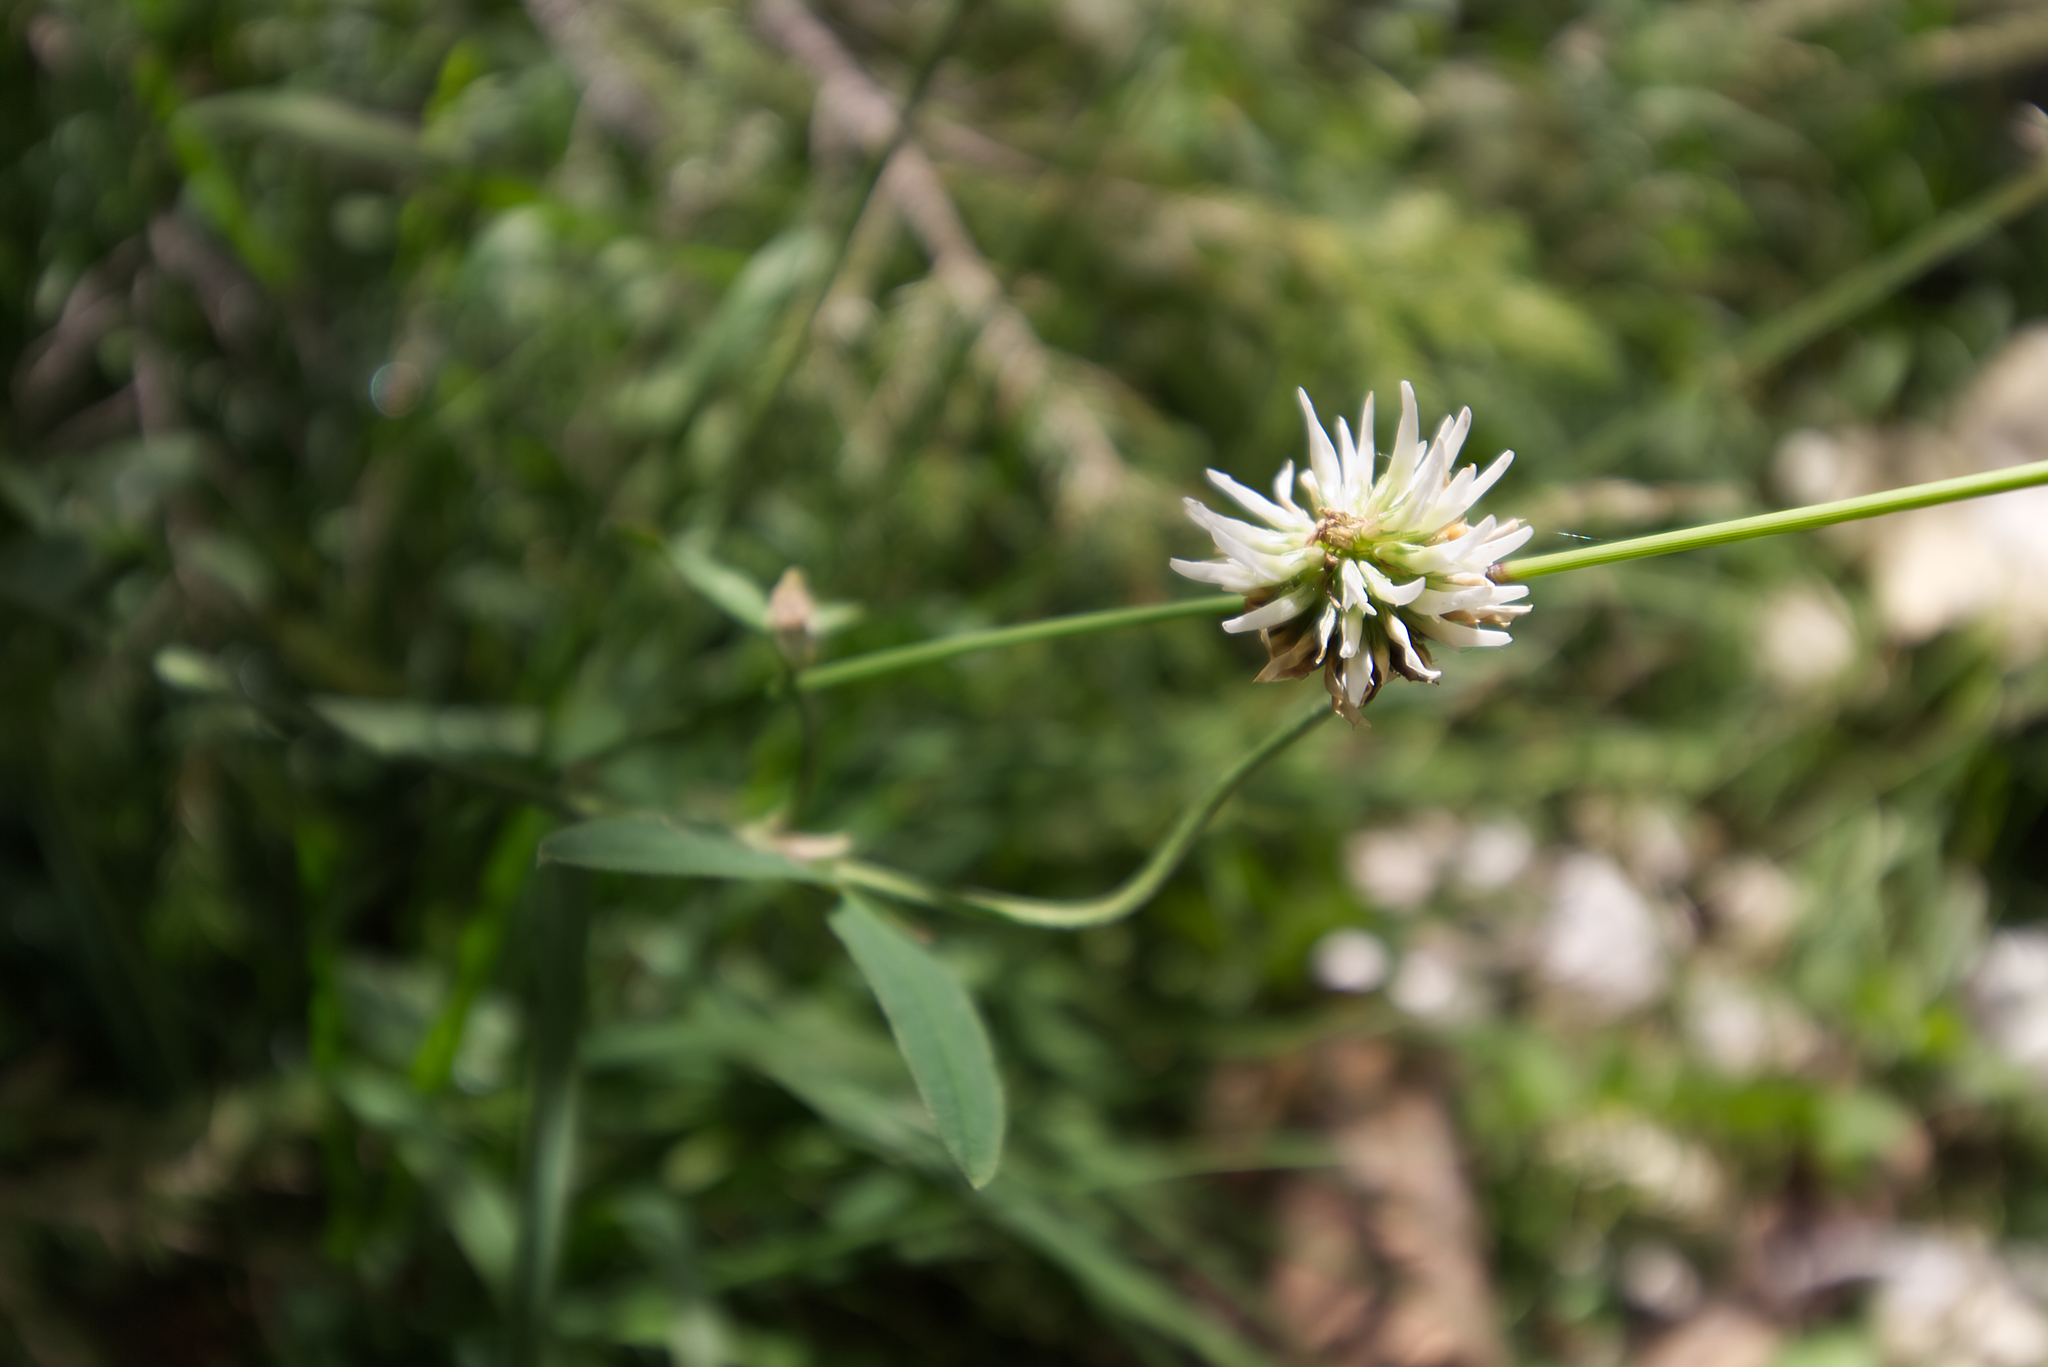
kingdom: Plantae
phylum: Tracheophyta
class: Magnoliopsida
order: Fabales
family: Fabaceae
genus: Trifolium
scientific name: Trifolium montanum
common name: Mountain clover
